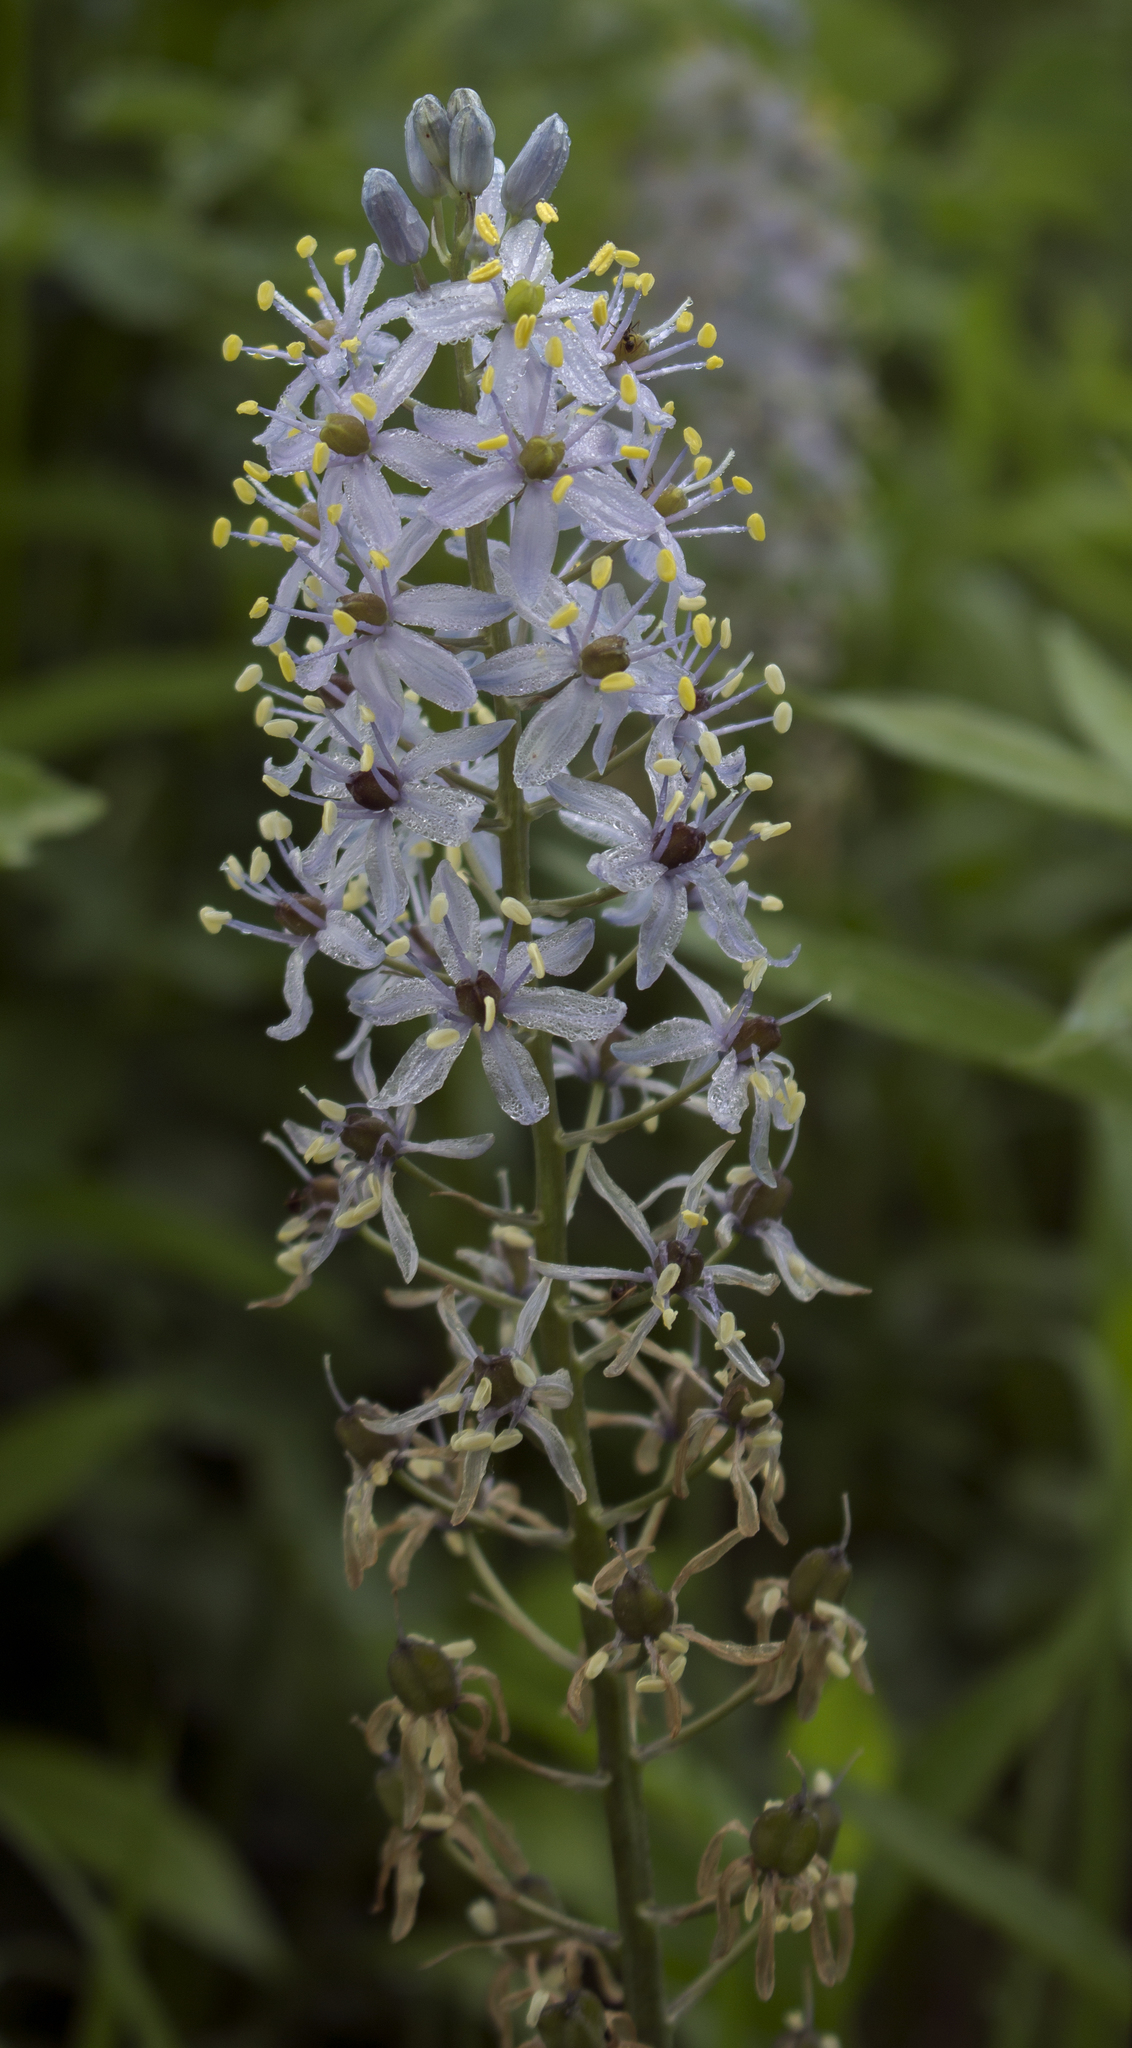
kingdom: Plantae
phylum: Tracheophyta
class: Liliopsida
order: Asparagales
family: Asparagaceae
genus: Camassia
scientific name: Camassia scilloides
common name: Wild hyacinth
